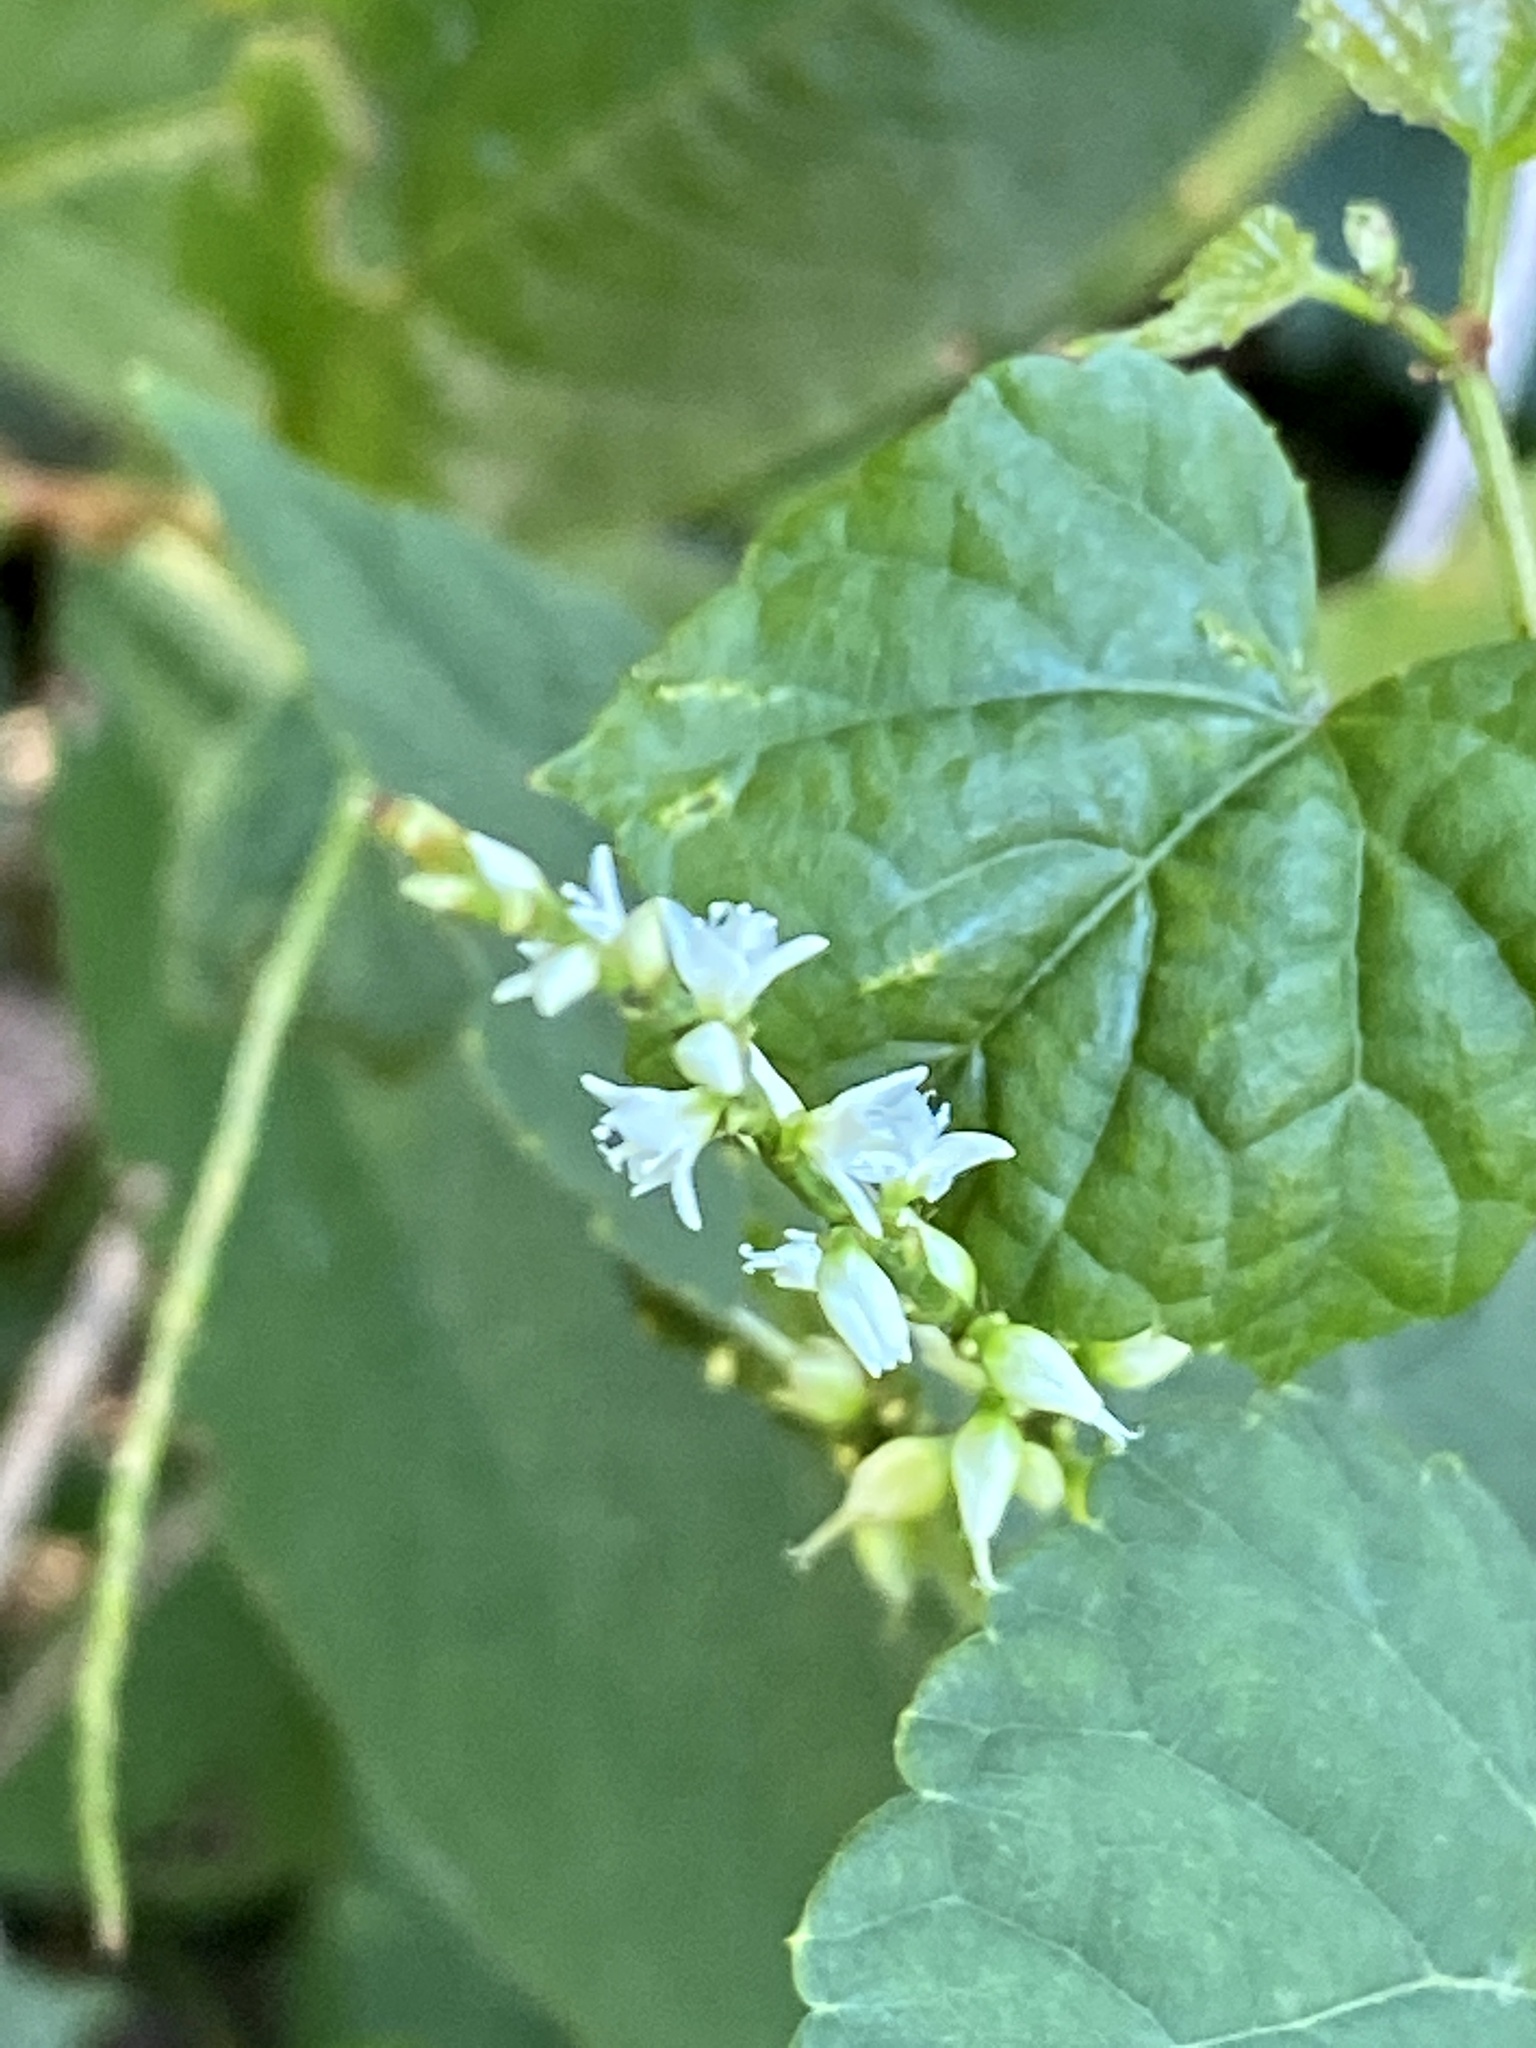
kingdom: Plantae
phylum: Tracheophyta
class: Magnoliopsida
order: Caryophyllales
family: Polygonaceae
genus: Persicaria
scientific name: Persicaria virginiana
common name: Jumpseed
